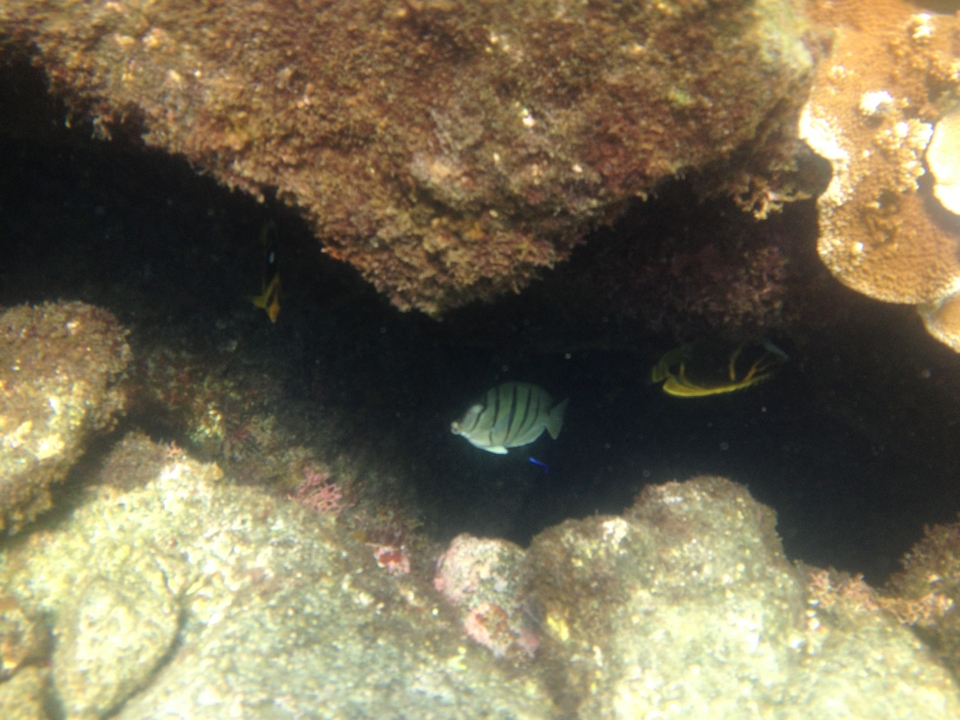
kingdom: Animalia
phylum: Chordata
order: Perciformes
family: Acanthuridae
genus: Acanthurus
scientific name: Acanthurus triostegus
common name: Convict surgeonfish
